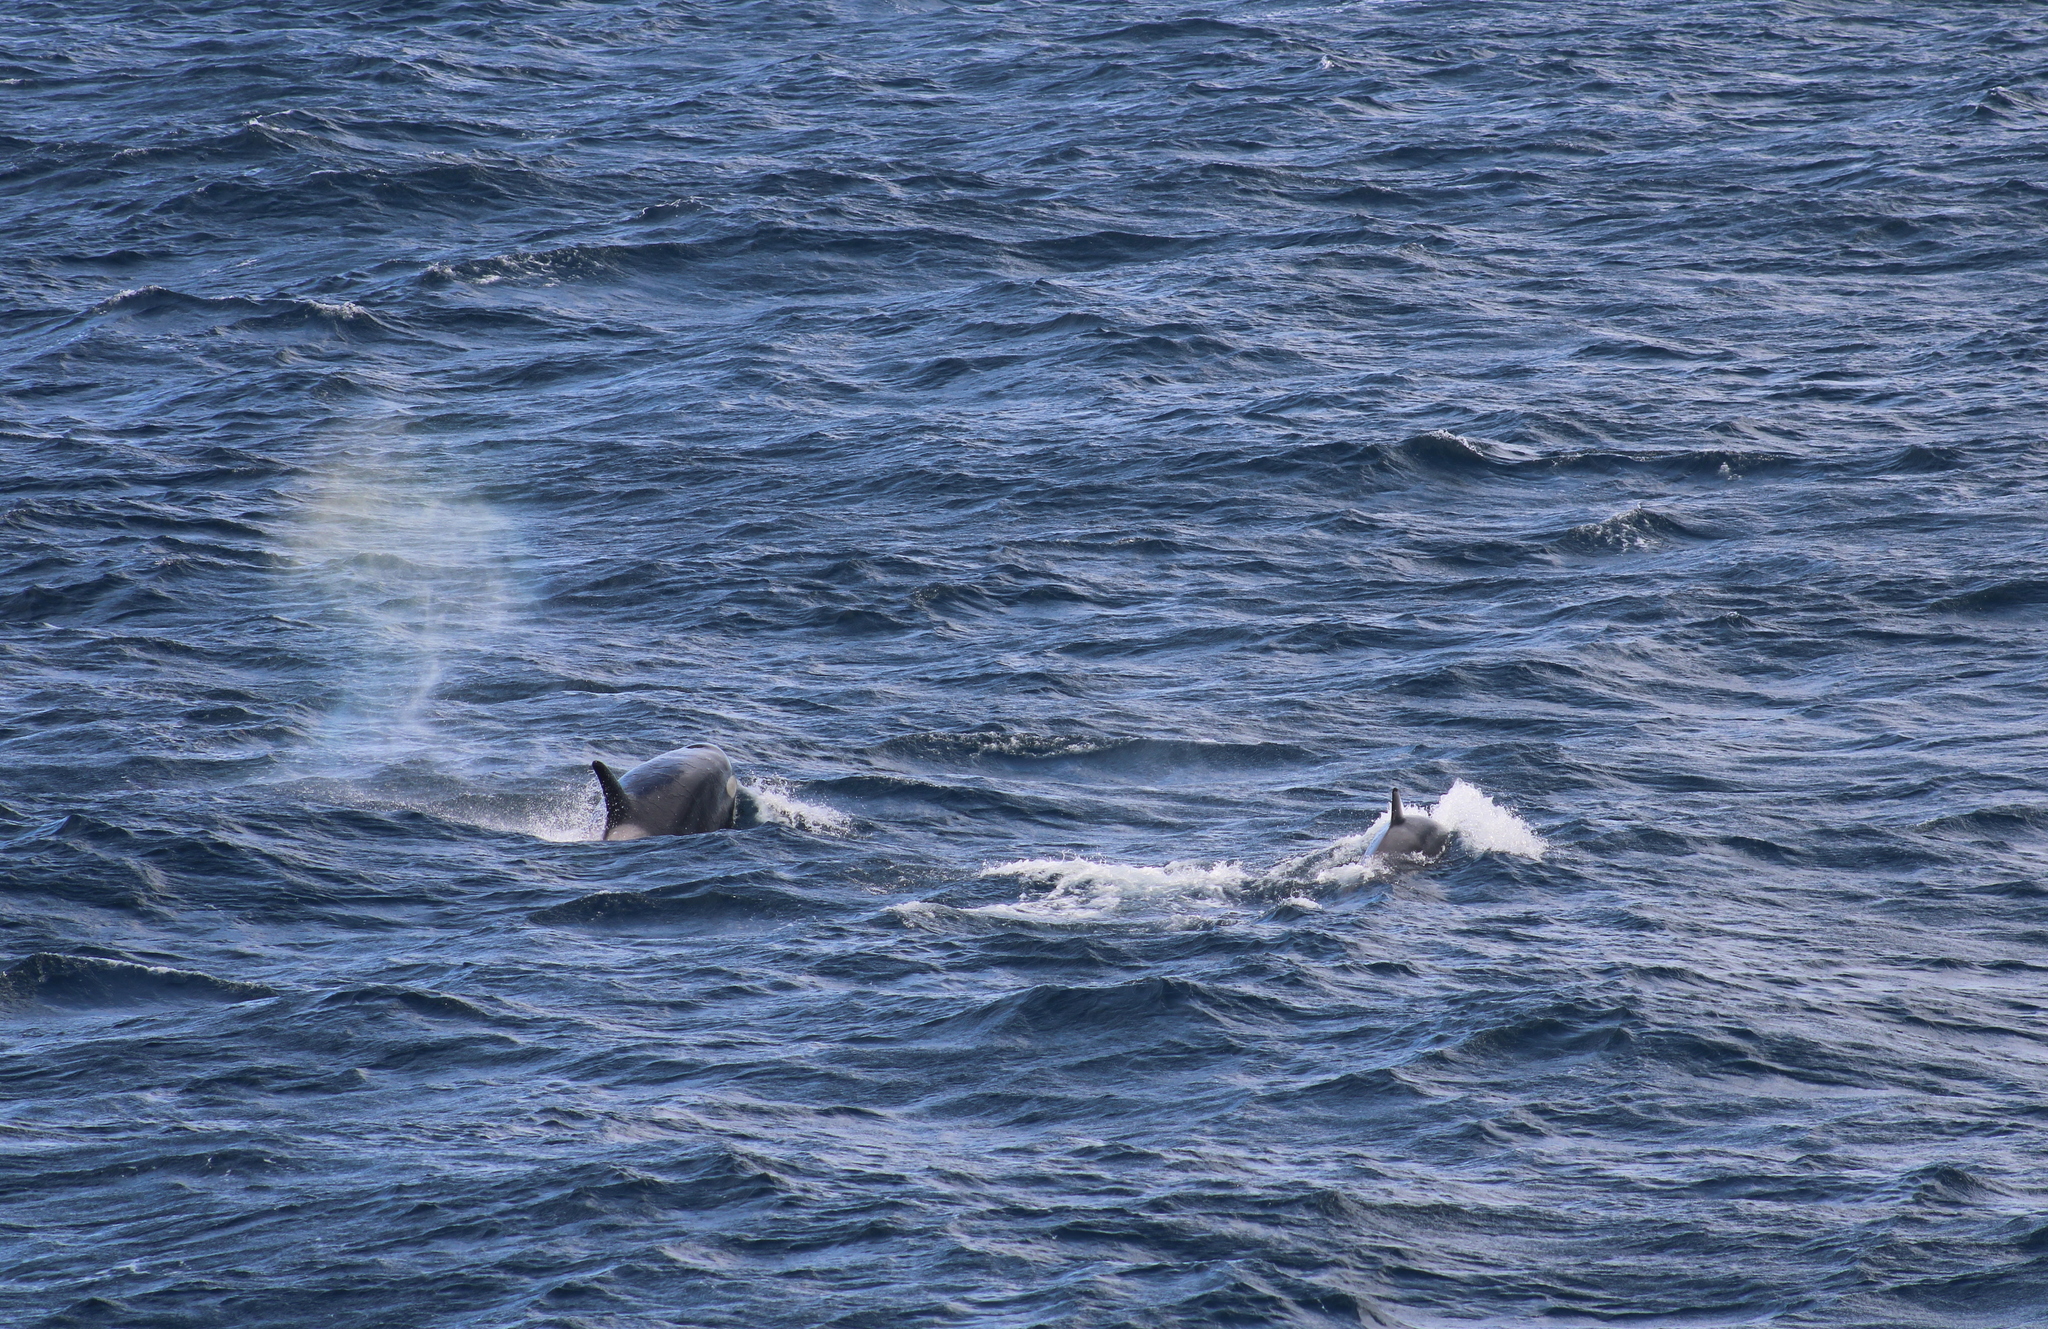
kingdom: Animalia
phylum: Chordata
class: Mammalia
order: Cetacea
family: Delphinidae
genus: Orcinus
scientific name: Orcinus orca
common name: Killer whale
